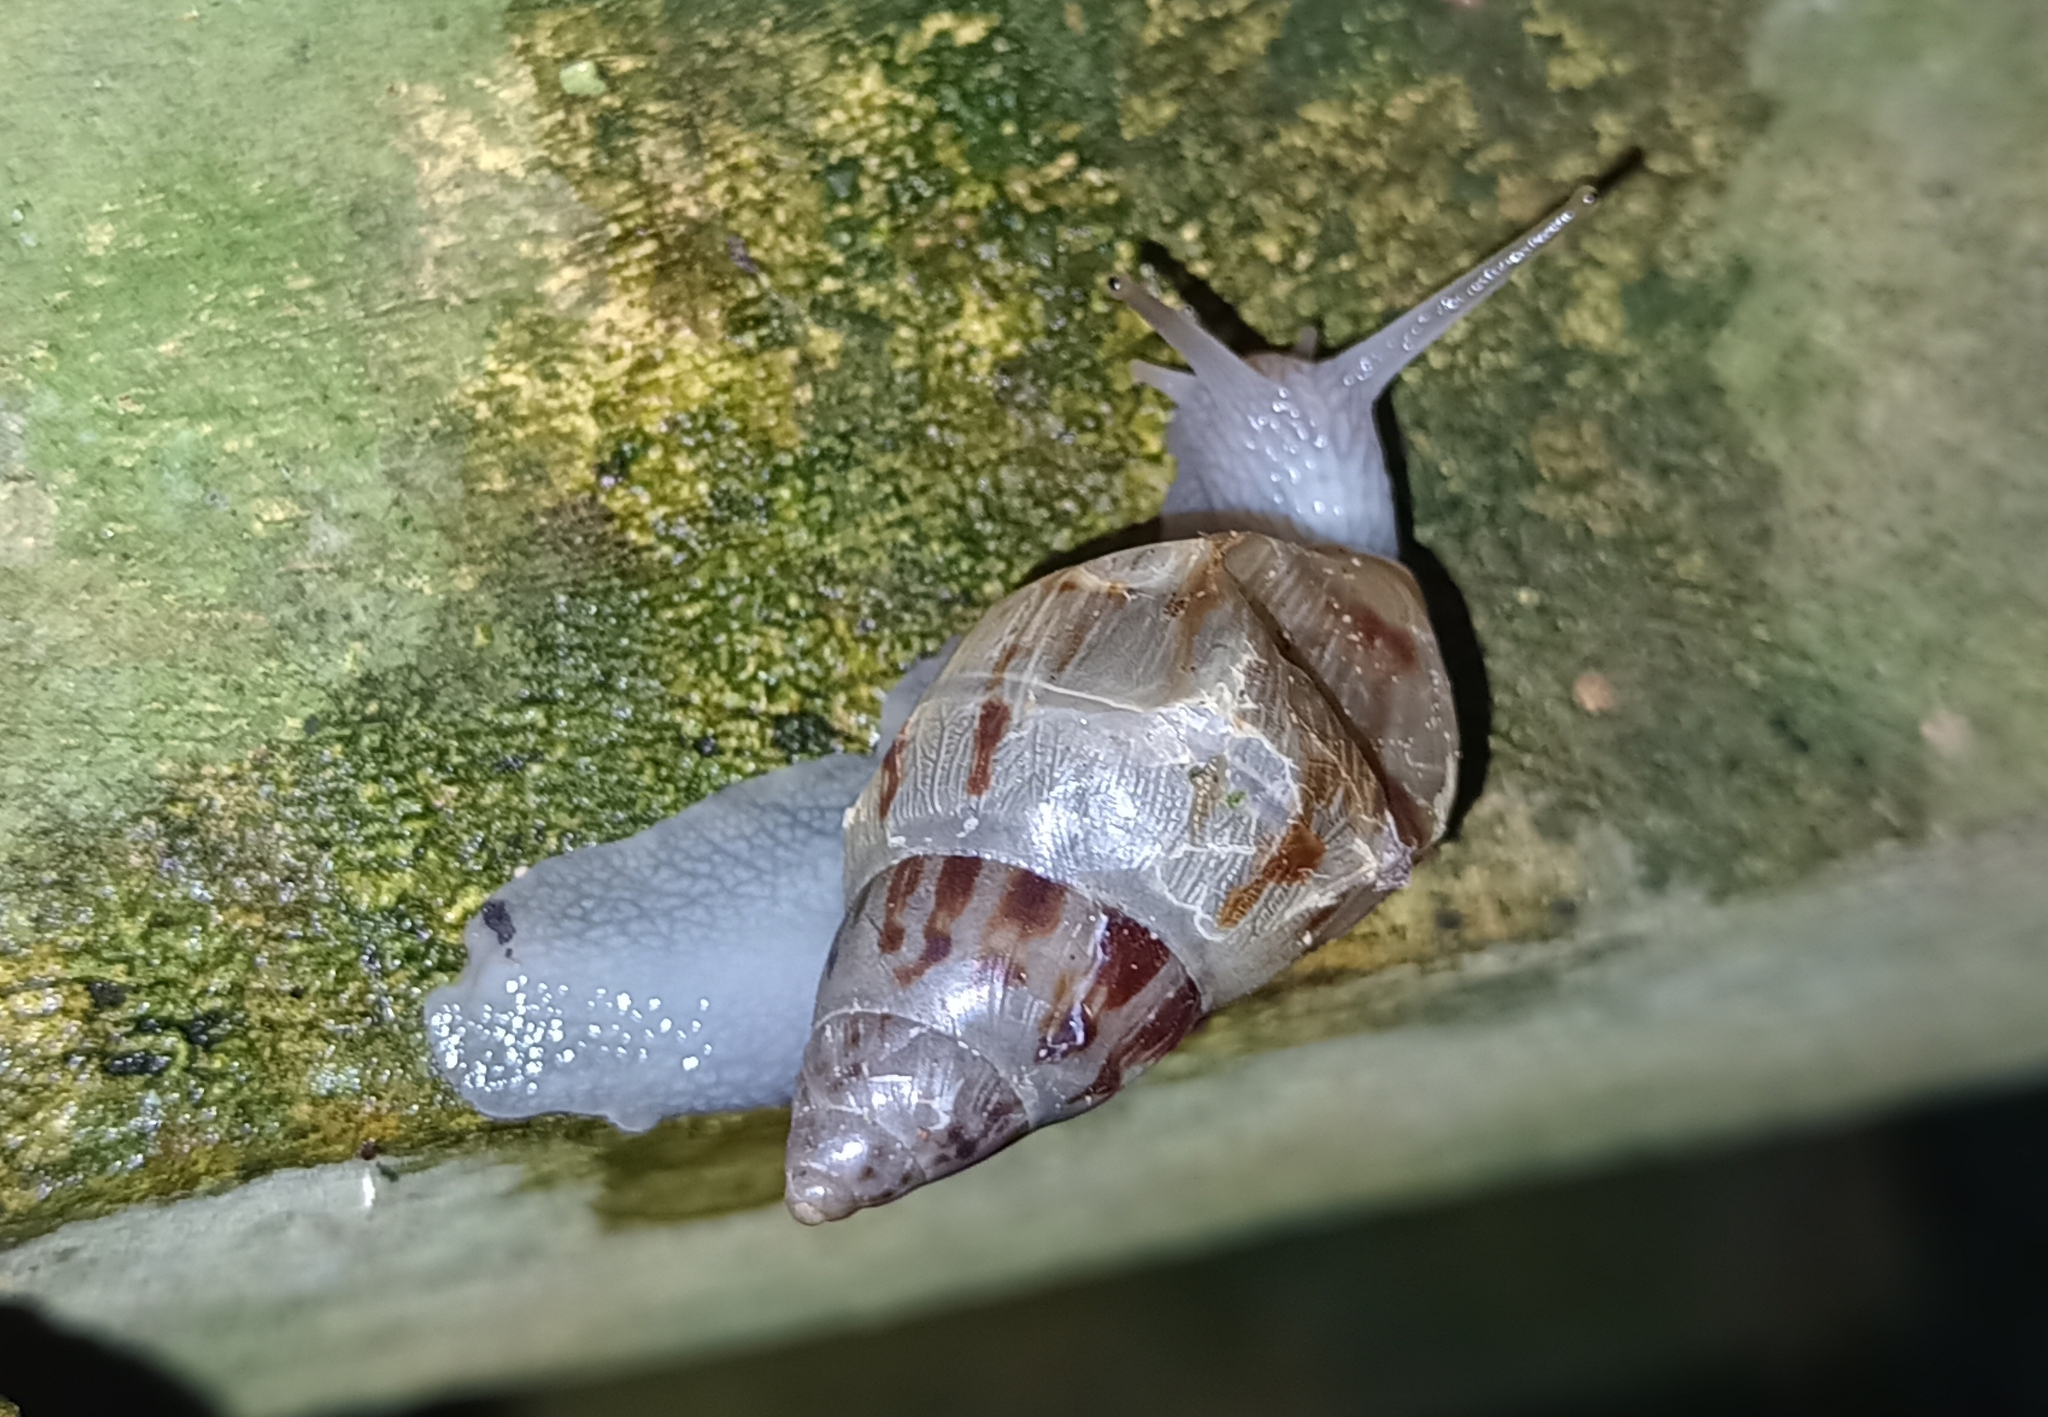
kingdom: Animalia
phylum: Mollusca
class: Gastropoda
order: Stylommatophora
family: Bulimulidae
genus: Drymaeus
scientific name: Drymaeus papyraceus
